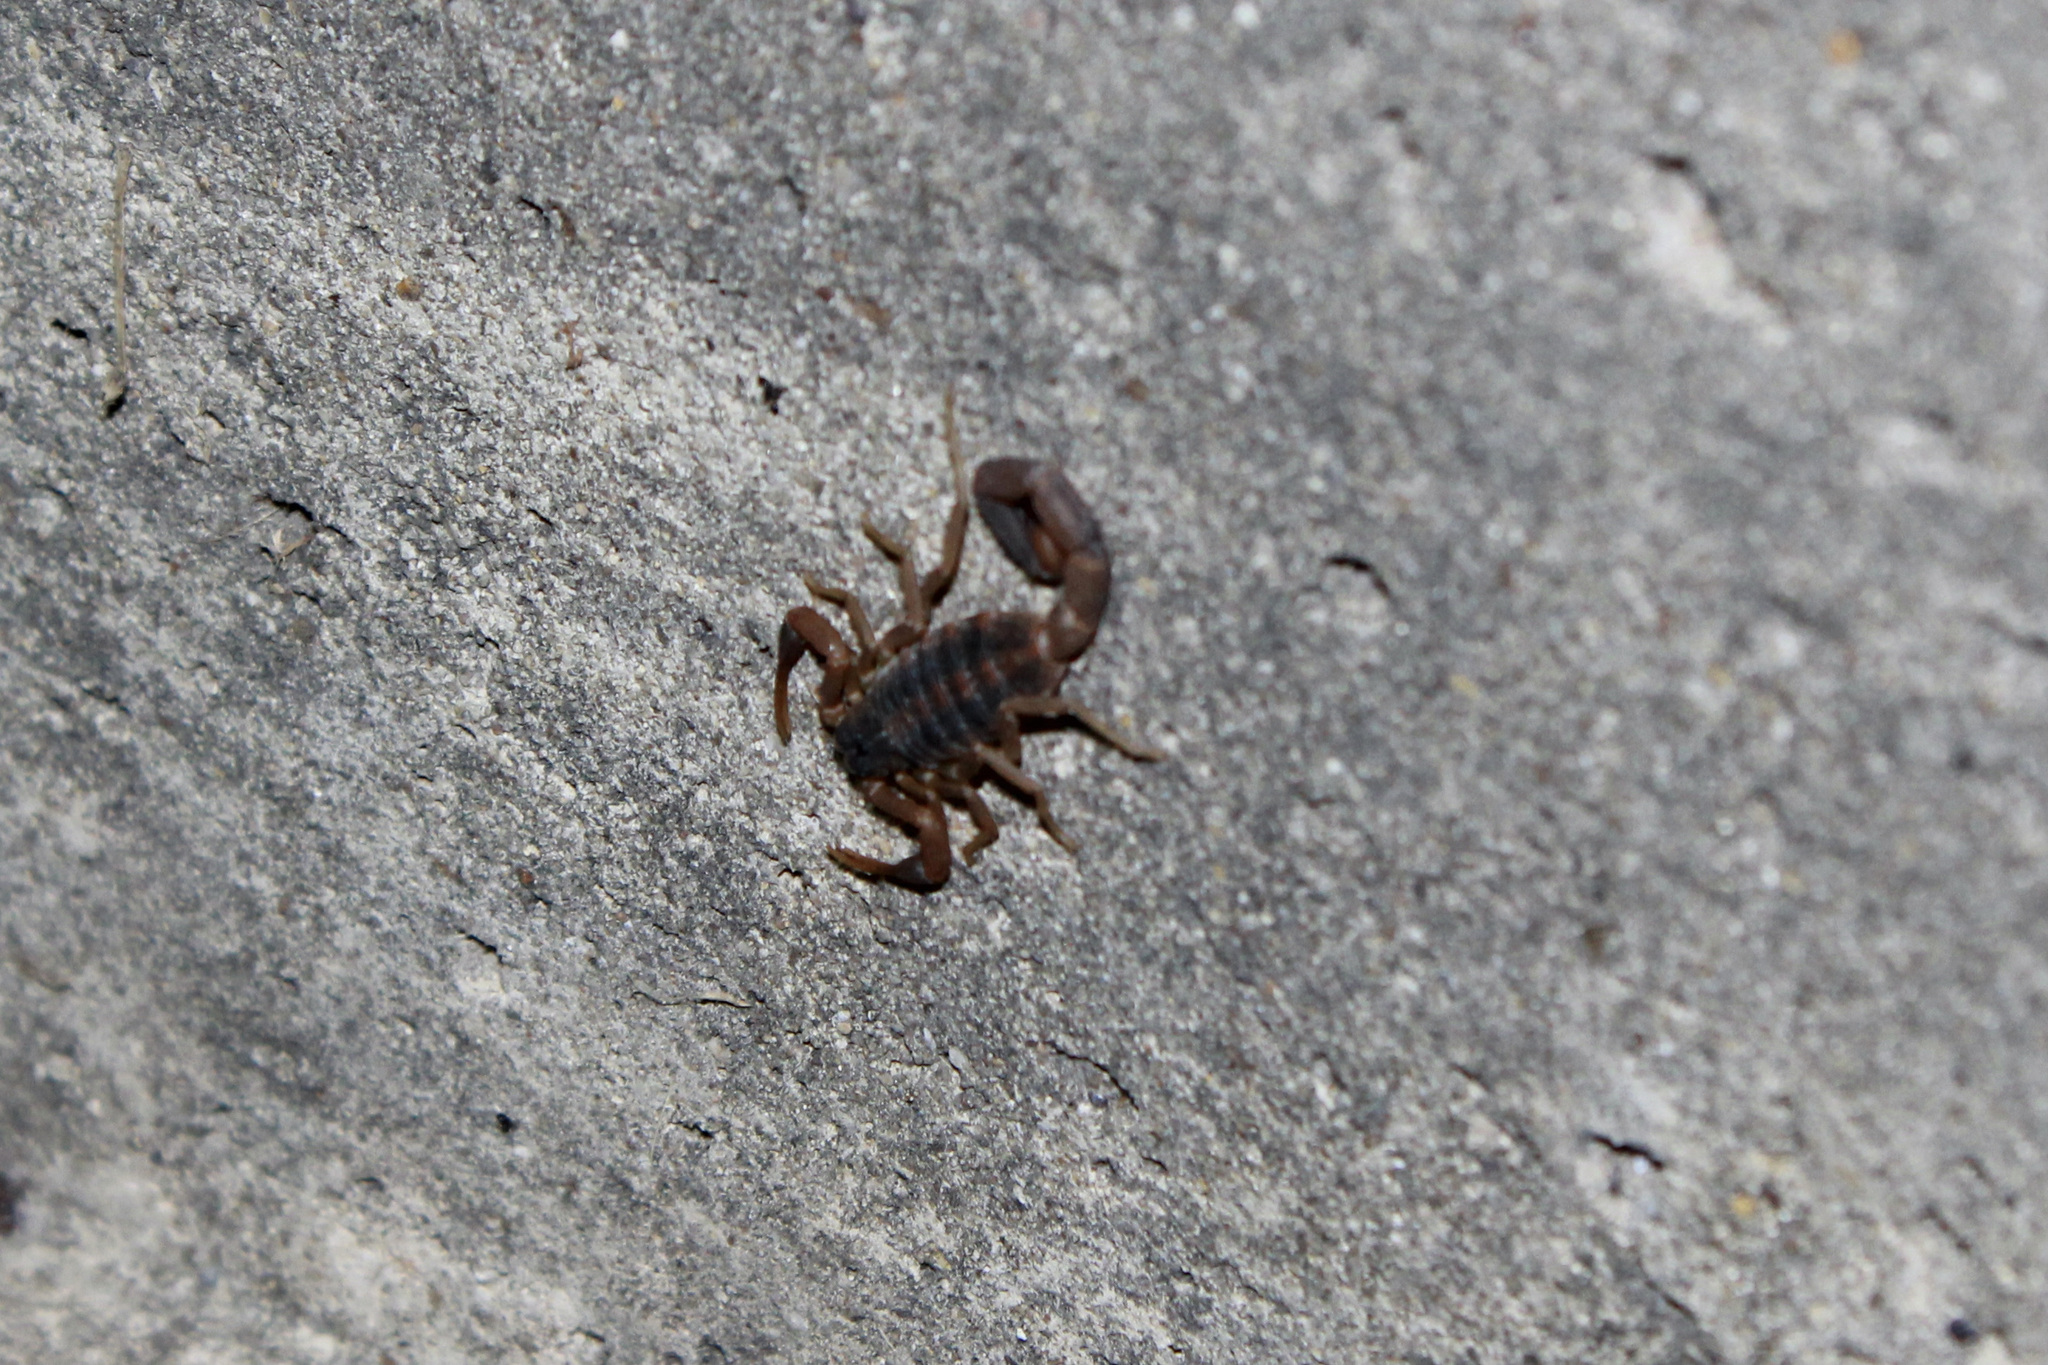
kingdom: Animalia
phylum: Arthropoda
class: Arachnida
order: Scorpiones
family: Buthidae
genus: Centruroides
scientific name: Centruroides vittatus
